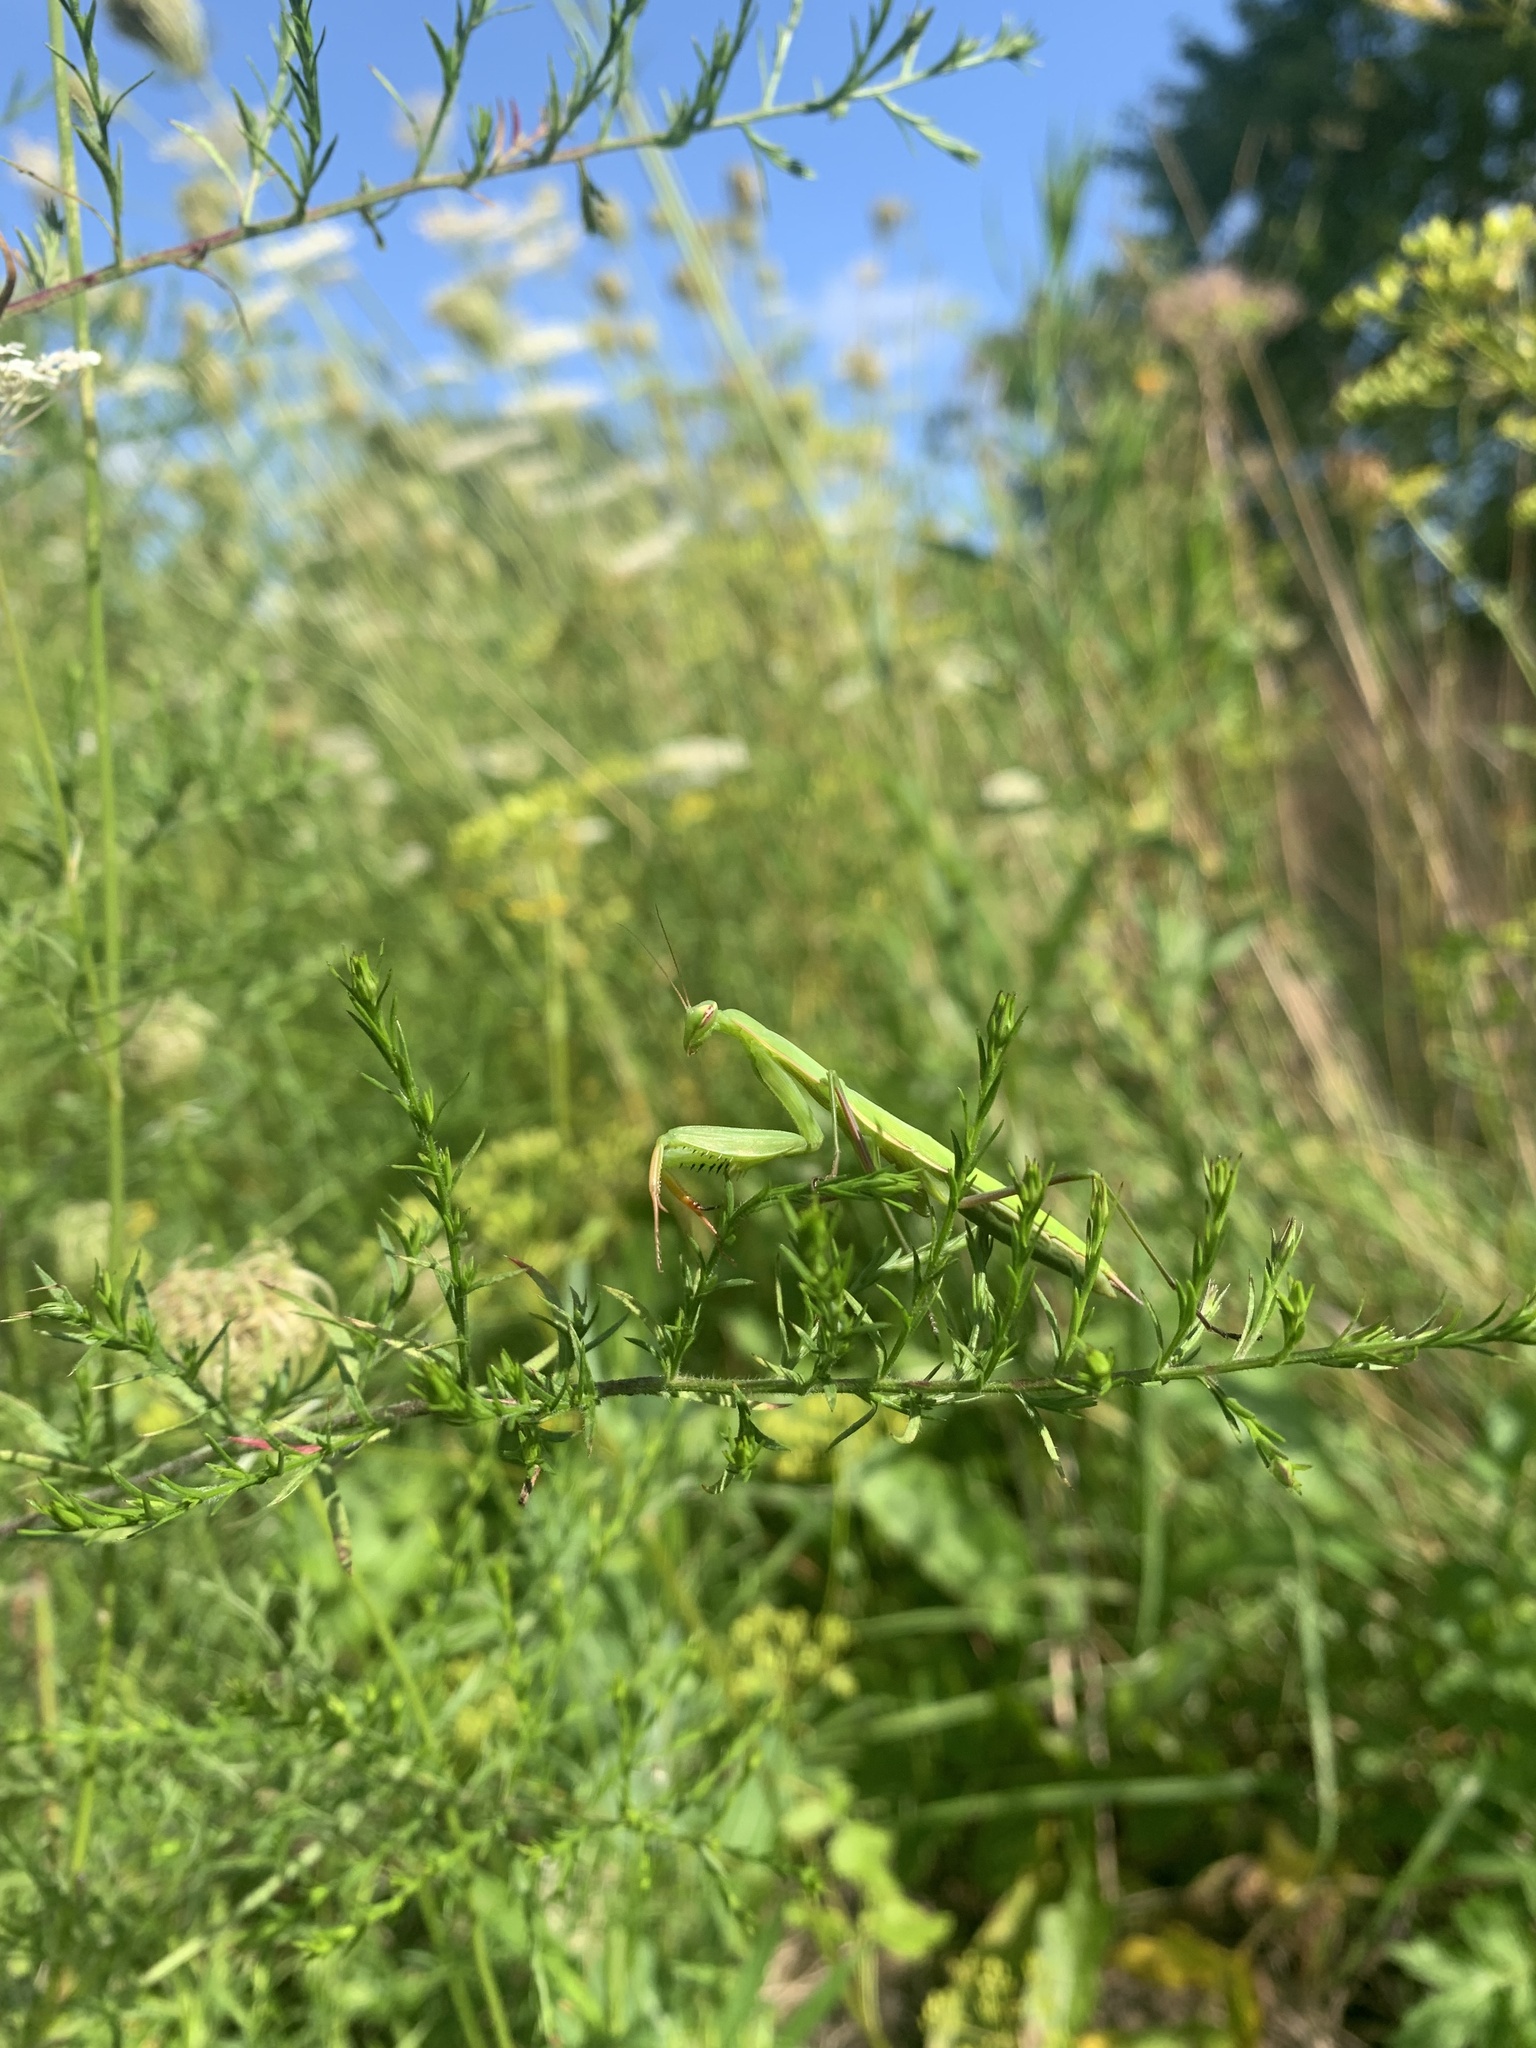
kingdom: Animalia
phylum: Arthropoda
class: Insecta
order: Mantodea
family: Mantidae
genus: Mantis
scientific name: Mantis religiosa
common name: Praying mantis
